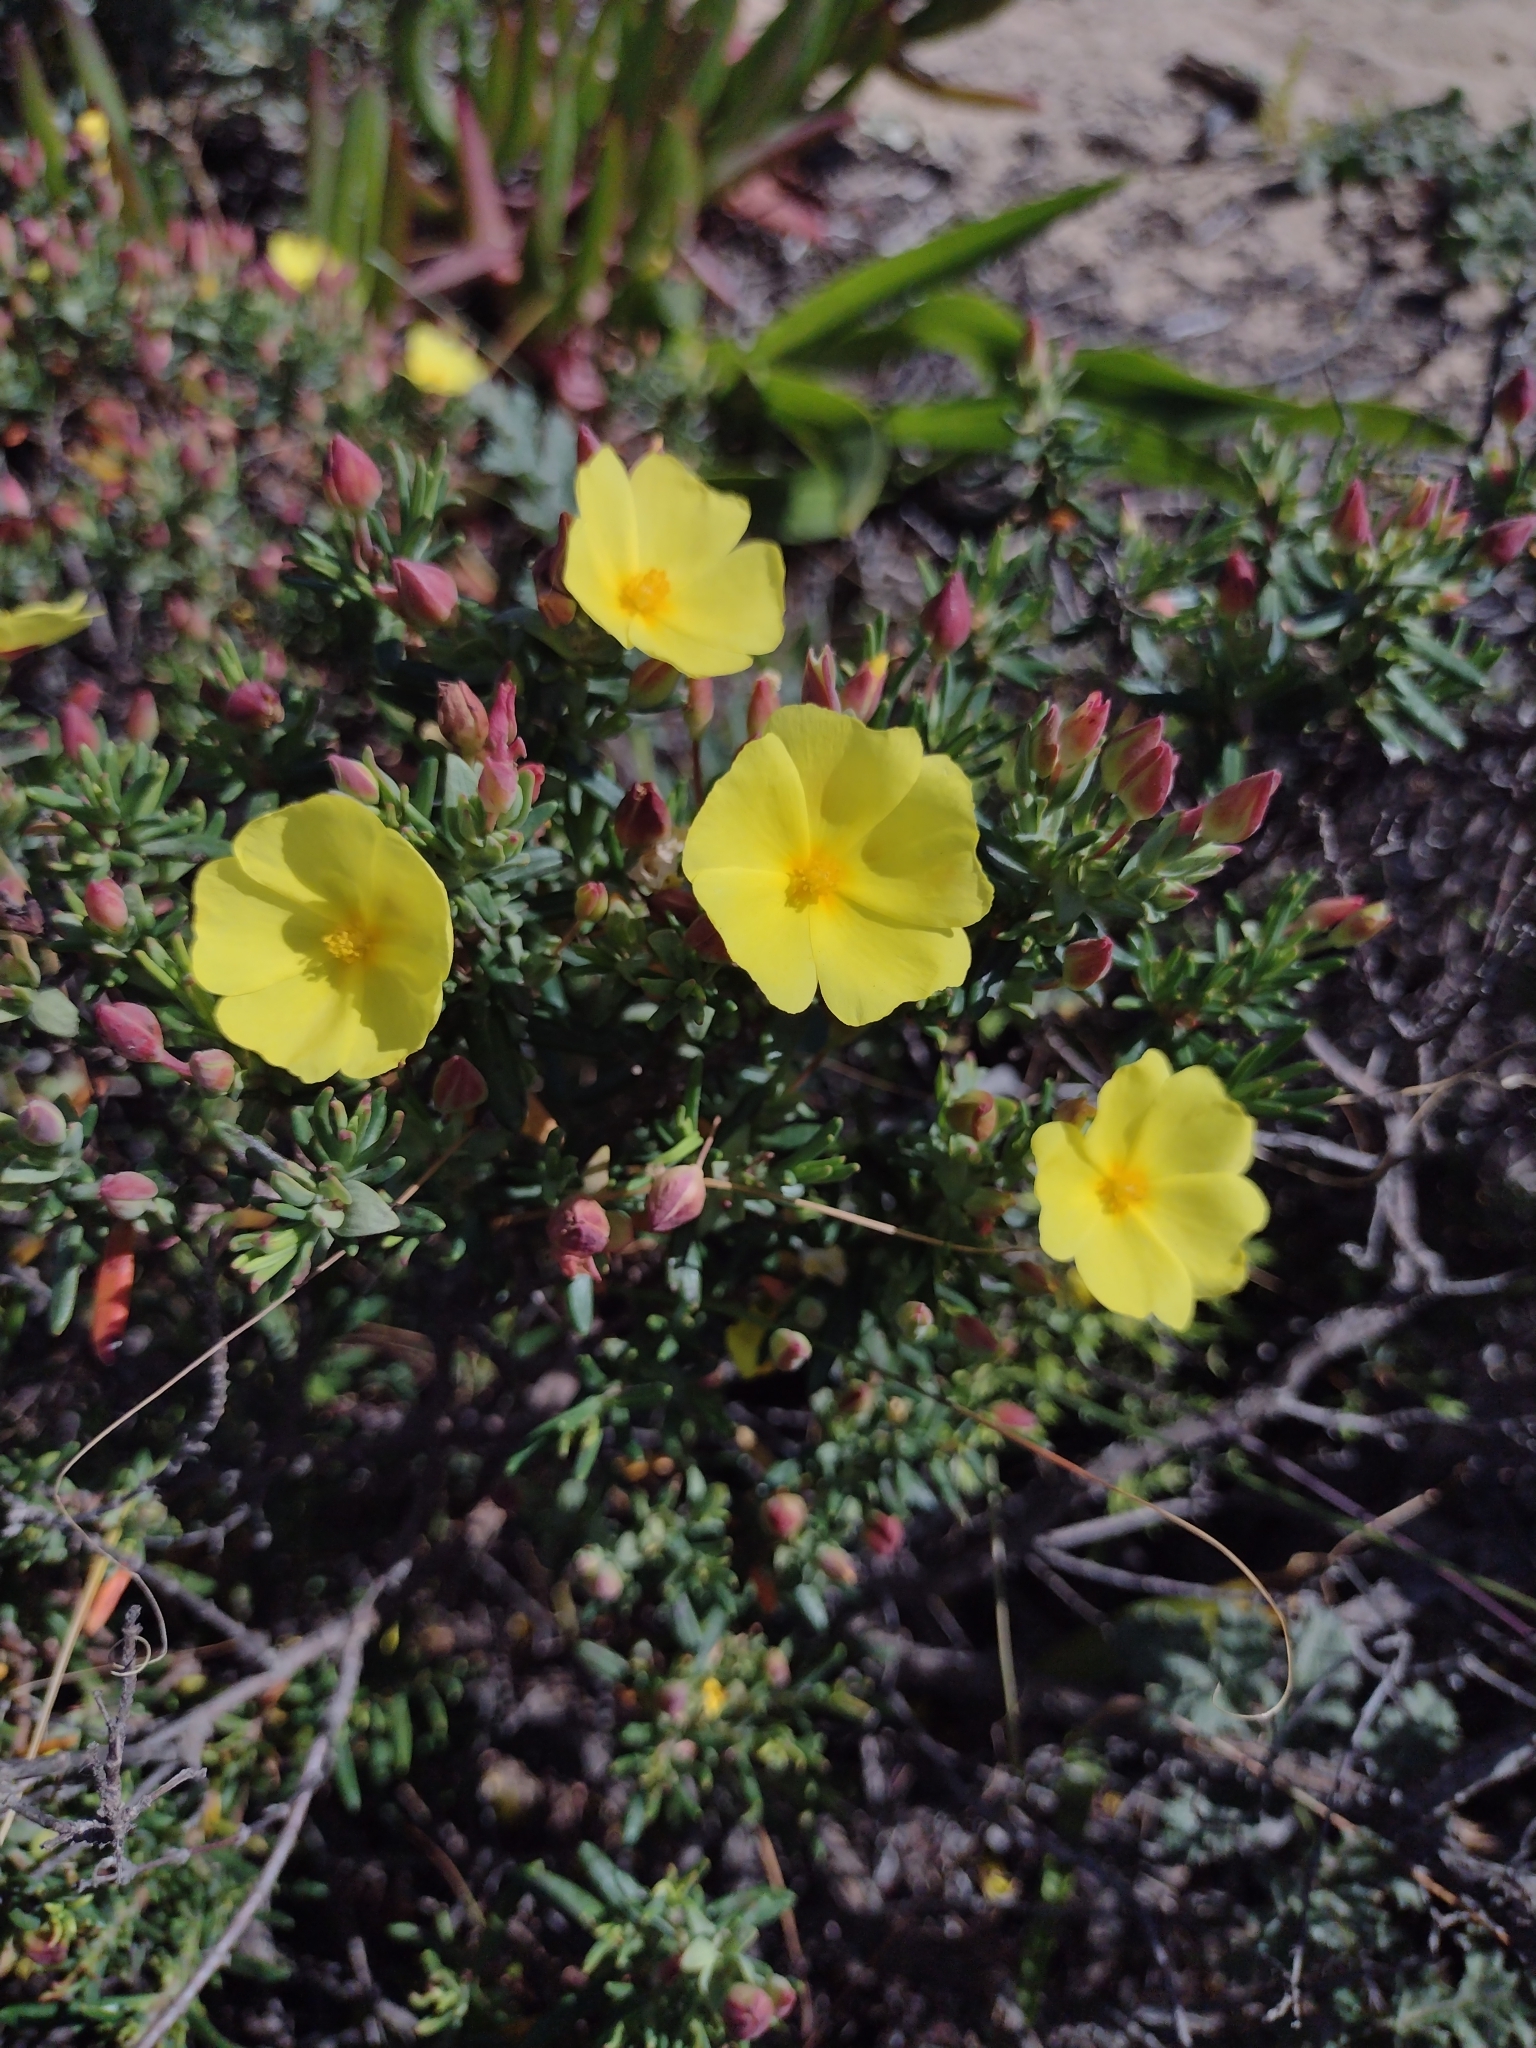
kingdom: Plantae
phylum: Tracheophyta
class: Magnoliopsida
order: Malvales
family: Cistaceae
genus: Halimium
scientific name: Halimium calycinum
